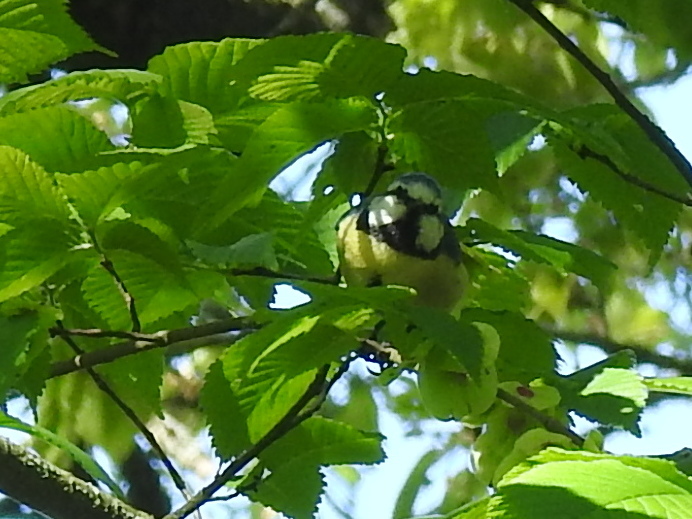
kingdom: Animalia
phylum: Chordata
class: Aves
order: Passeriformes
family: Paridae
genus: Cyanistes
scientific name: Cyanistes caeruleus
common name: Eurasian blue tit
